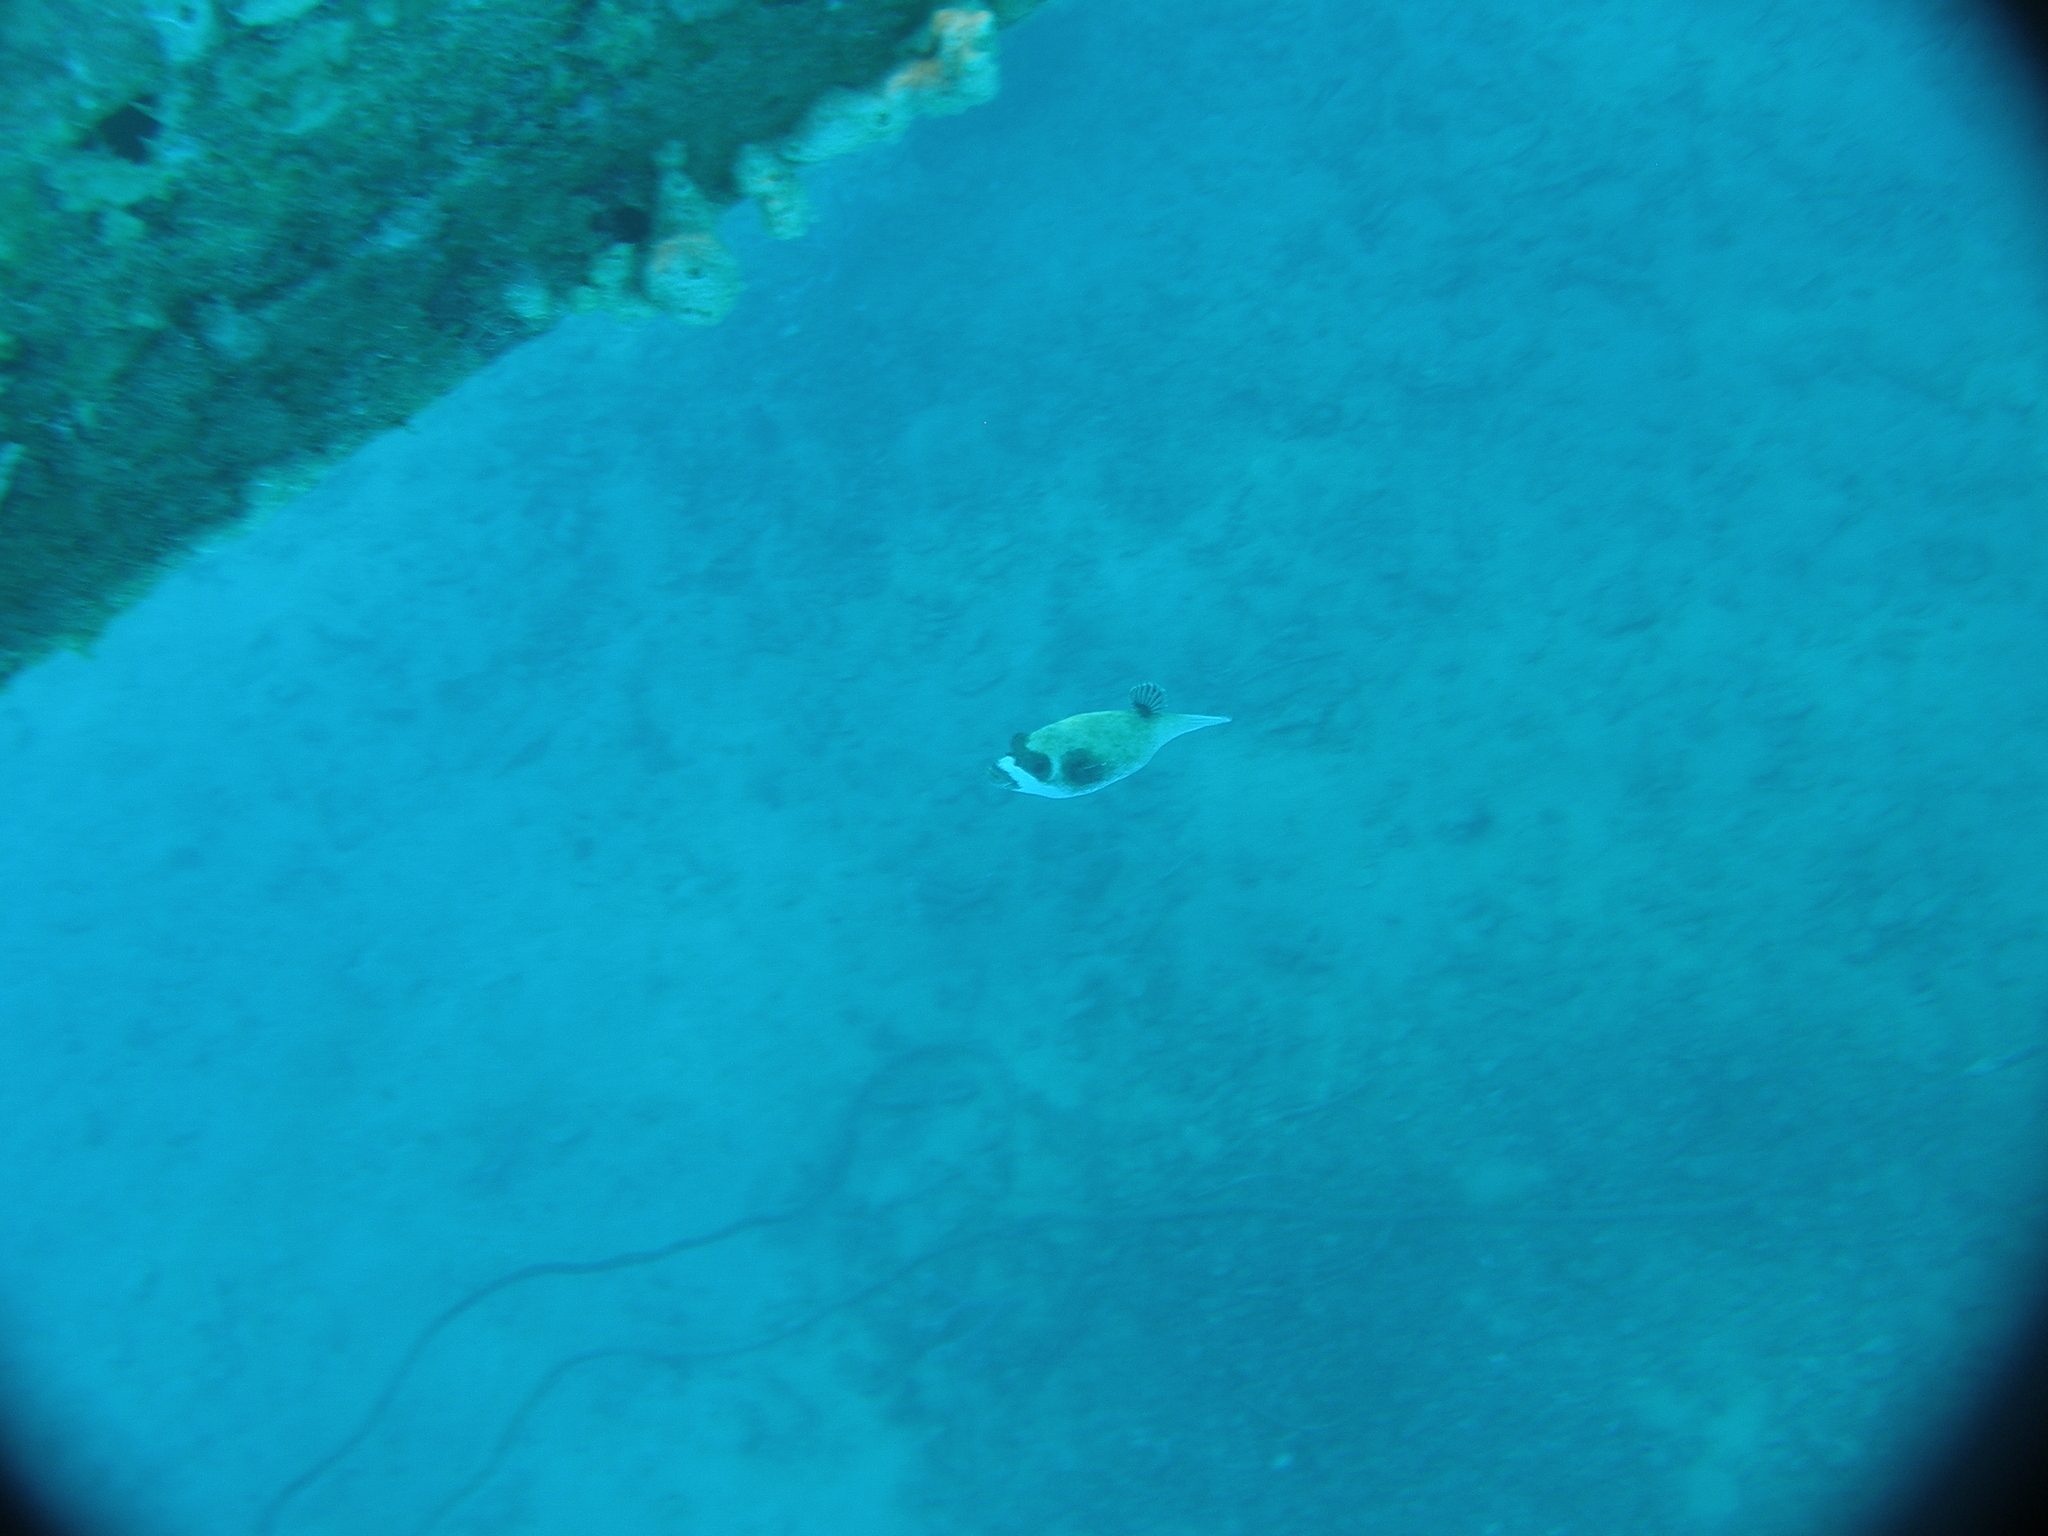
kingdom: Animalia
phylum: Chordata
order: Tetraodontiformes
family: Tetraodontidae
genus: Arothron
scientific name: Arothron diadematus
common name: Masked puffer
